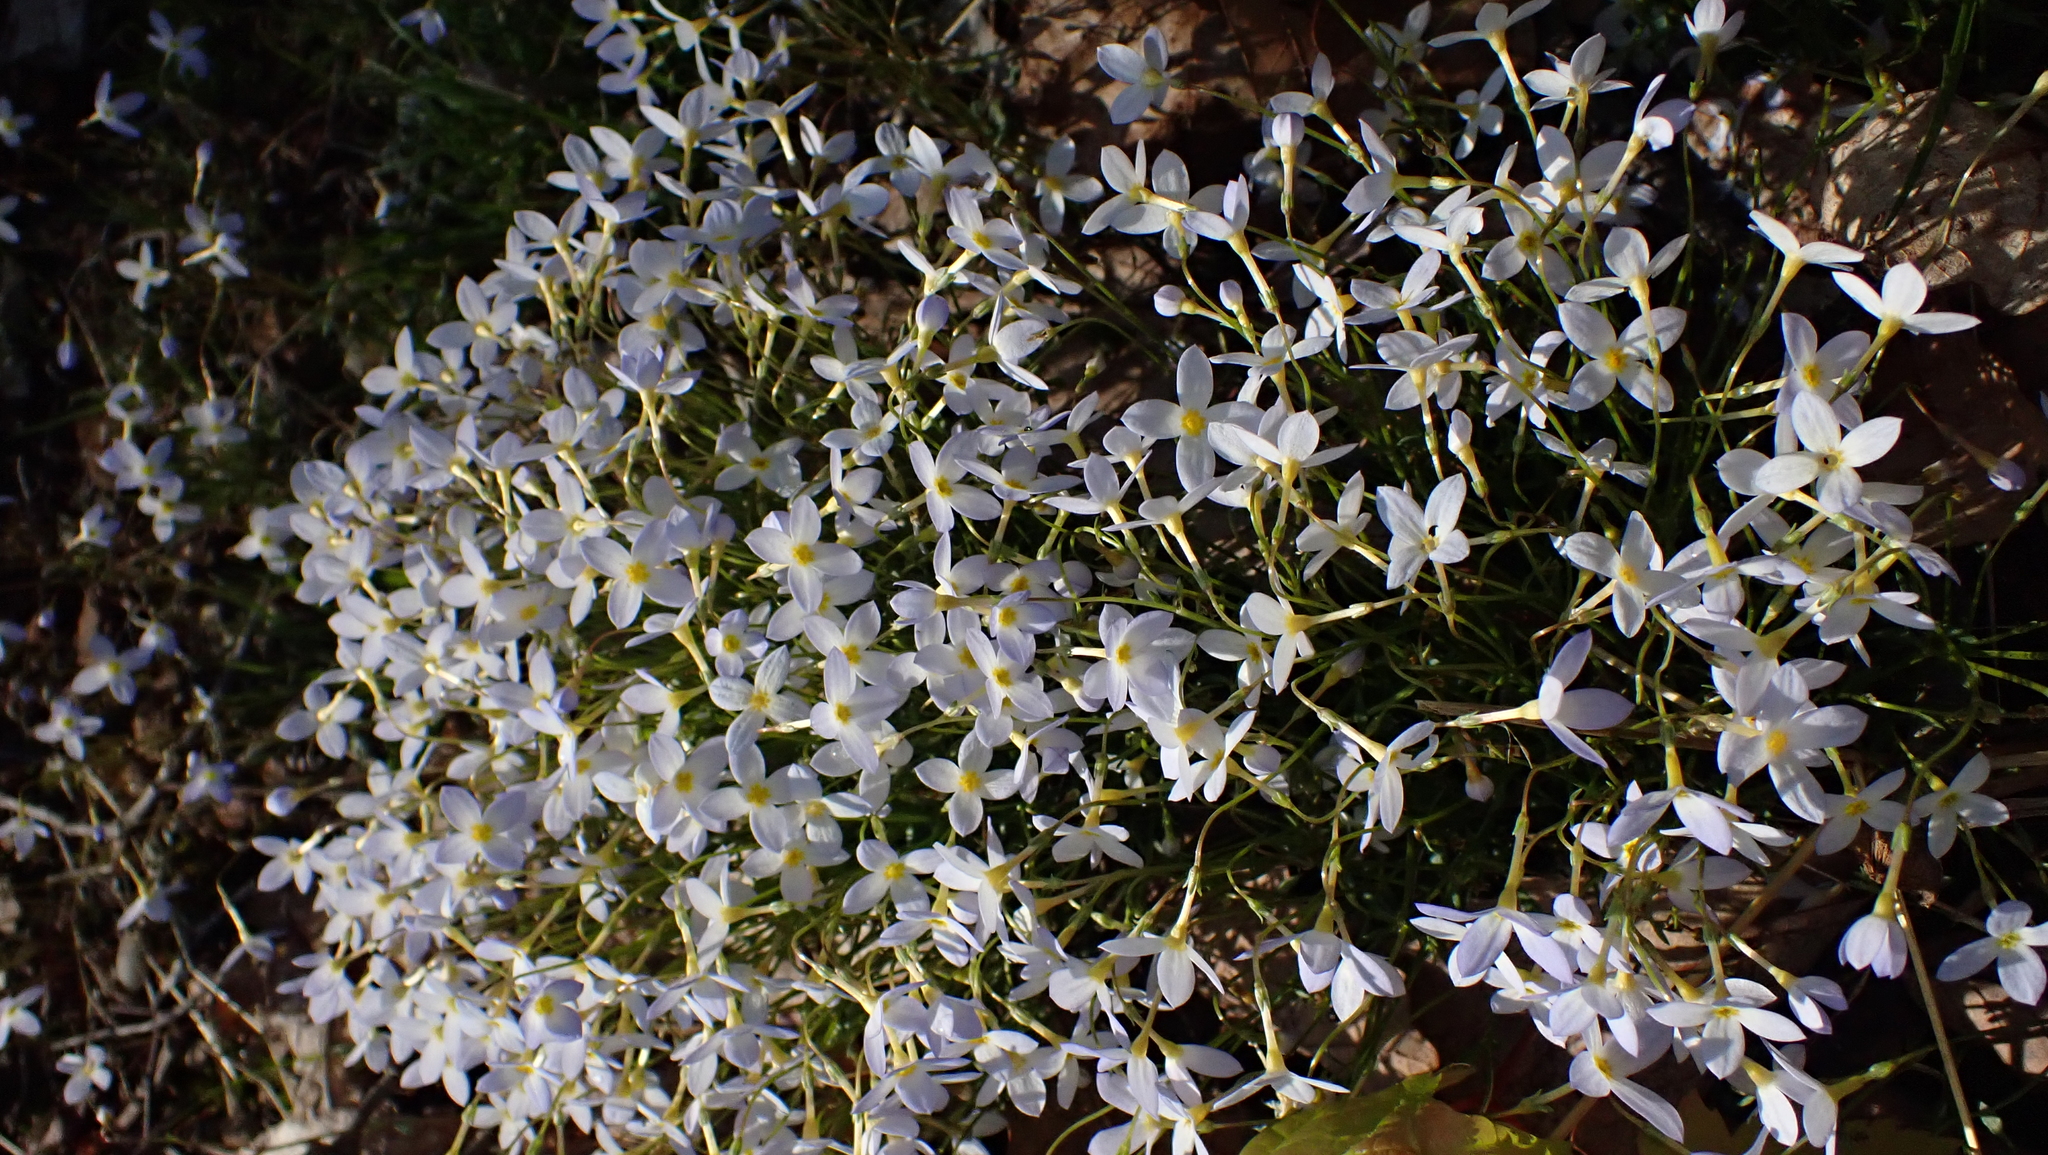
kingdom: Plantae
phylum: Tracheophyta
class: Magnoliopsida
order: Gentianales
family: Rubiaceae
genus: Houstonia
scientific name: Houstonia caerulea
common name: Bluets
